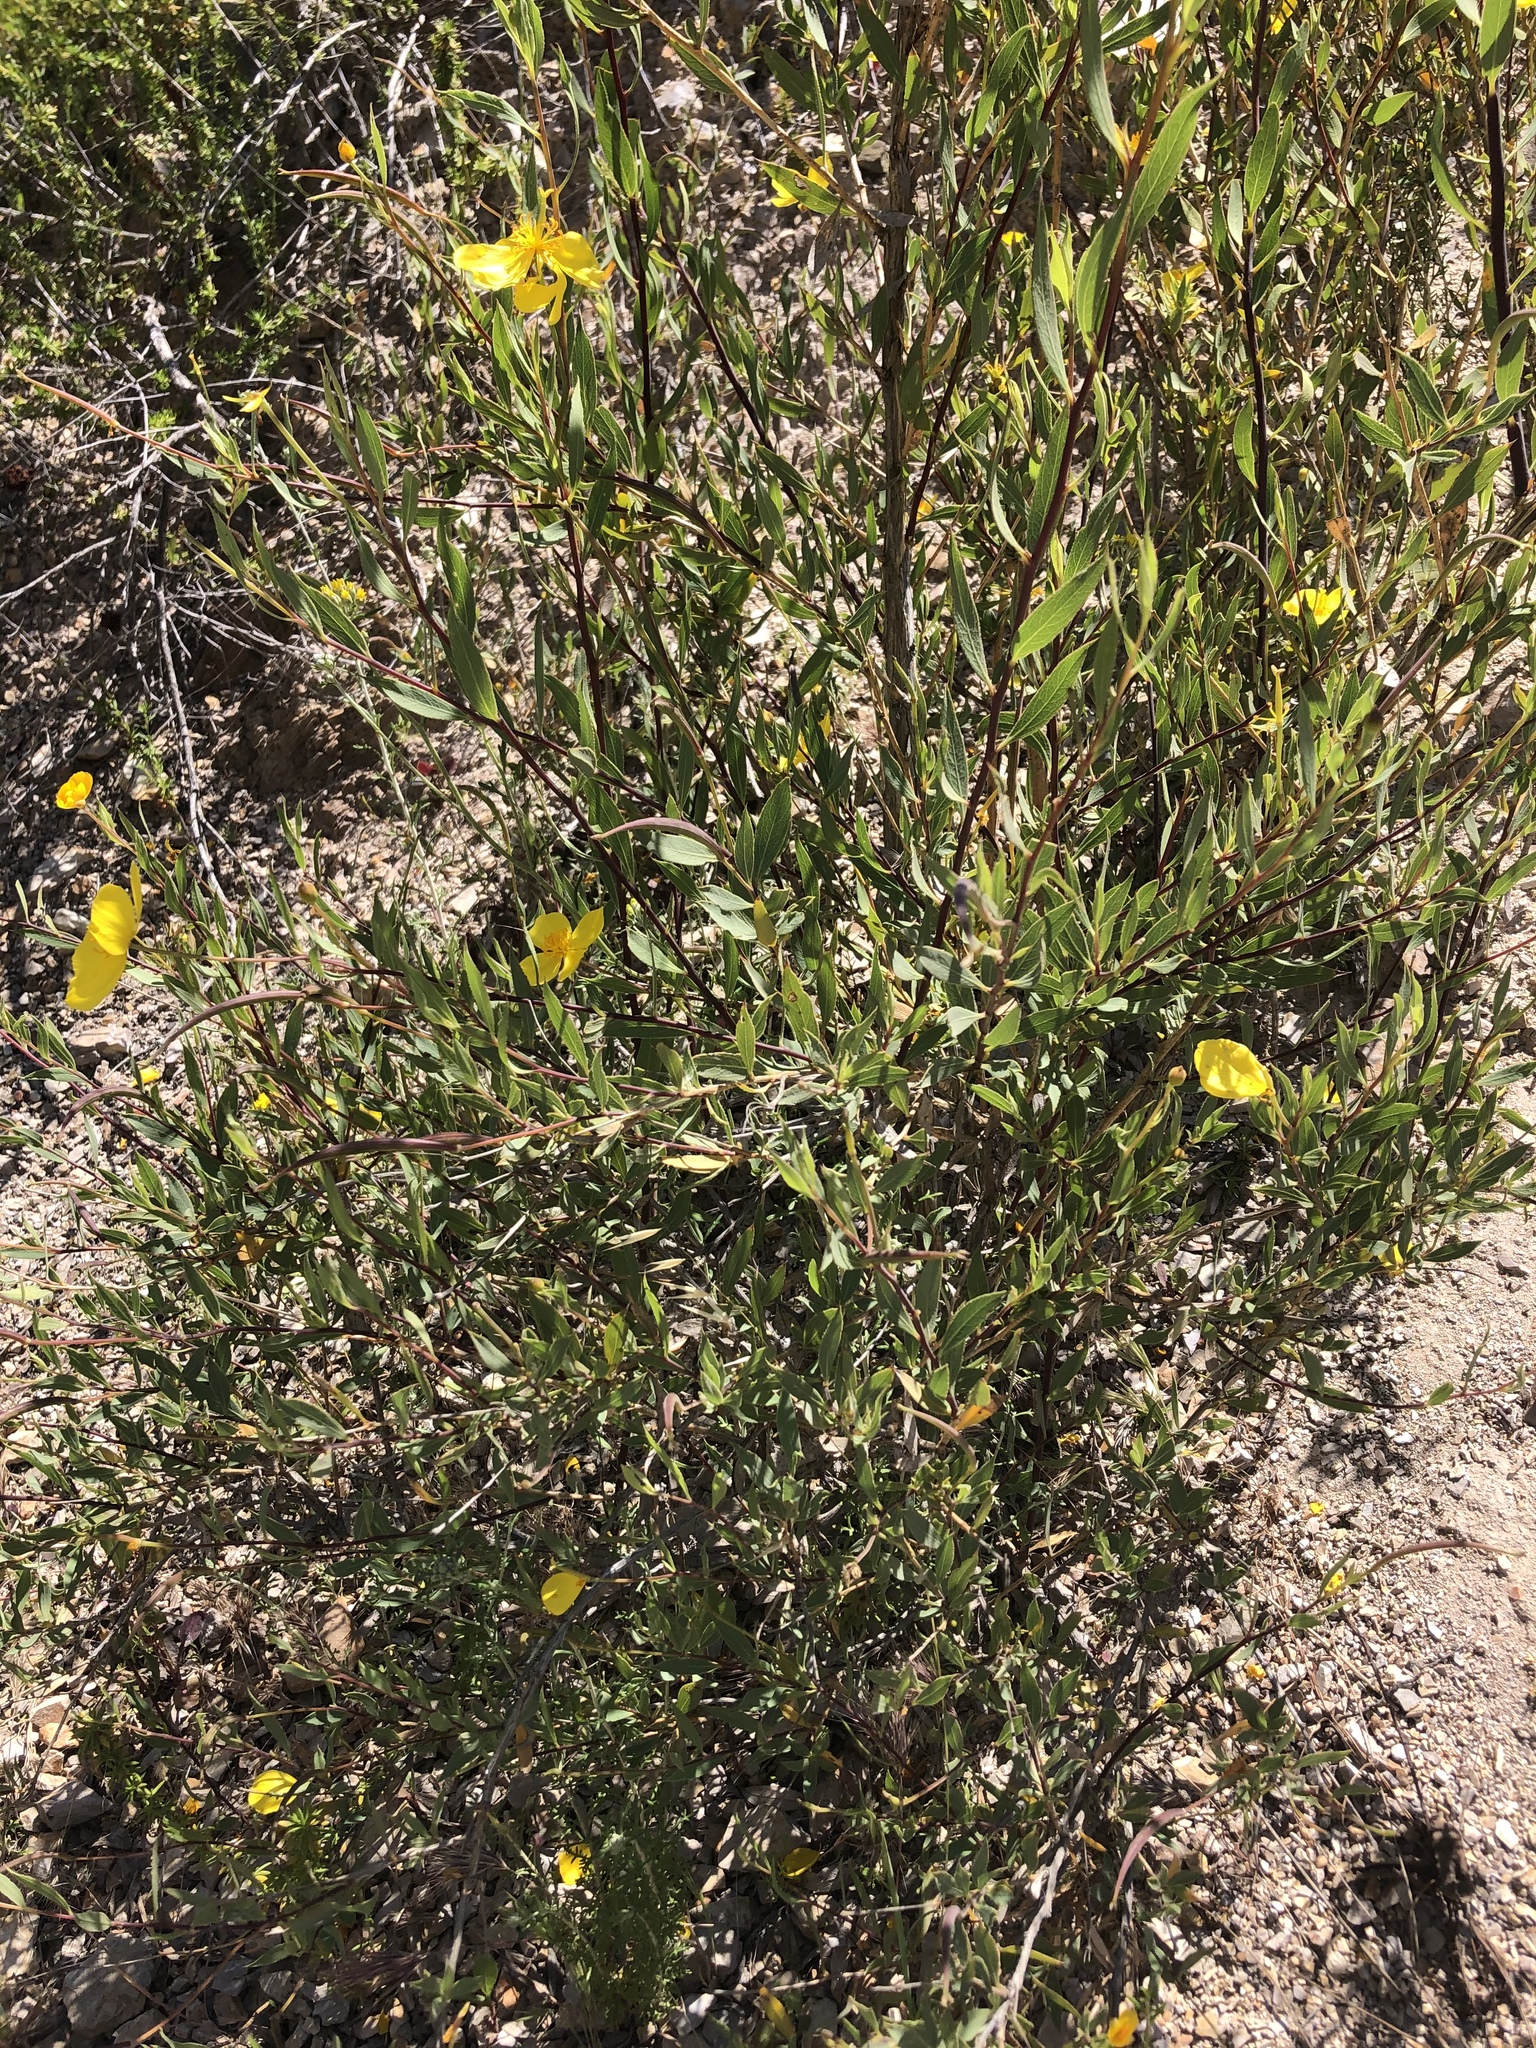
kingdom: Plantae
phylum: Tracheophyta
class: Magnoliopsida
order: Ranunculales
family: Papaveraceae
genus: Dendromecon
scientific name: Dendromecon rigida
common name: Tree poppy
